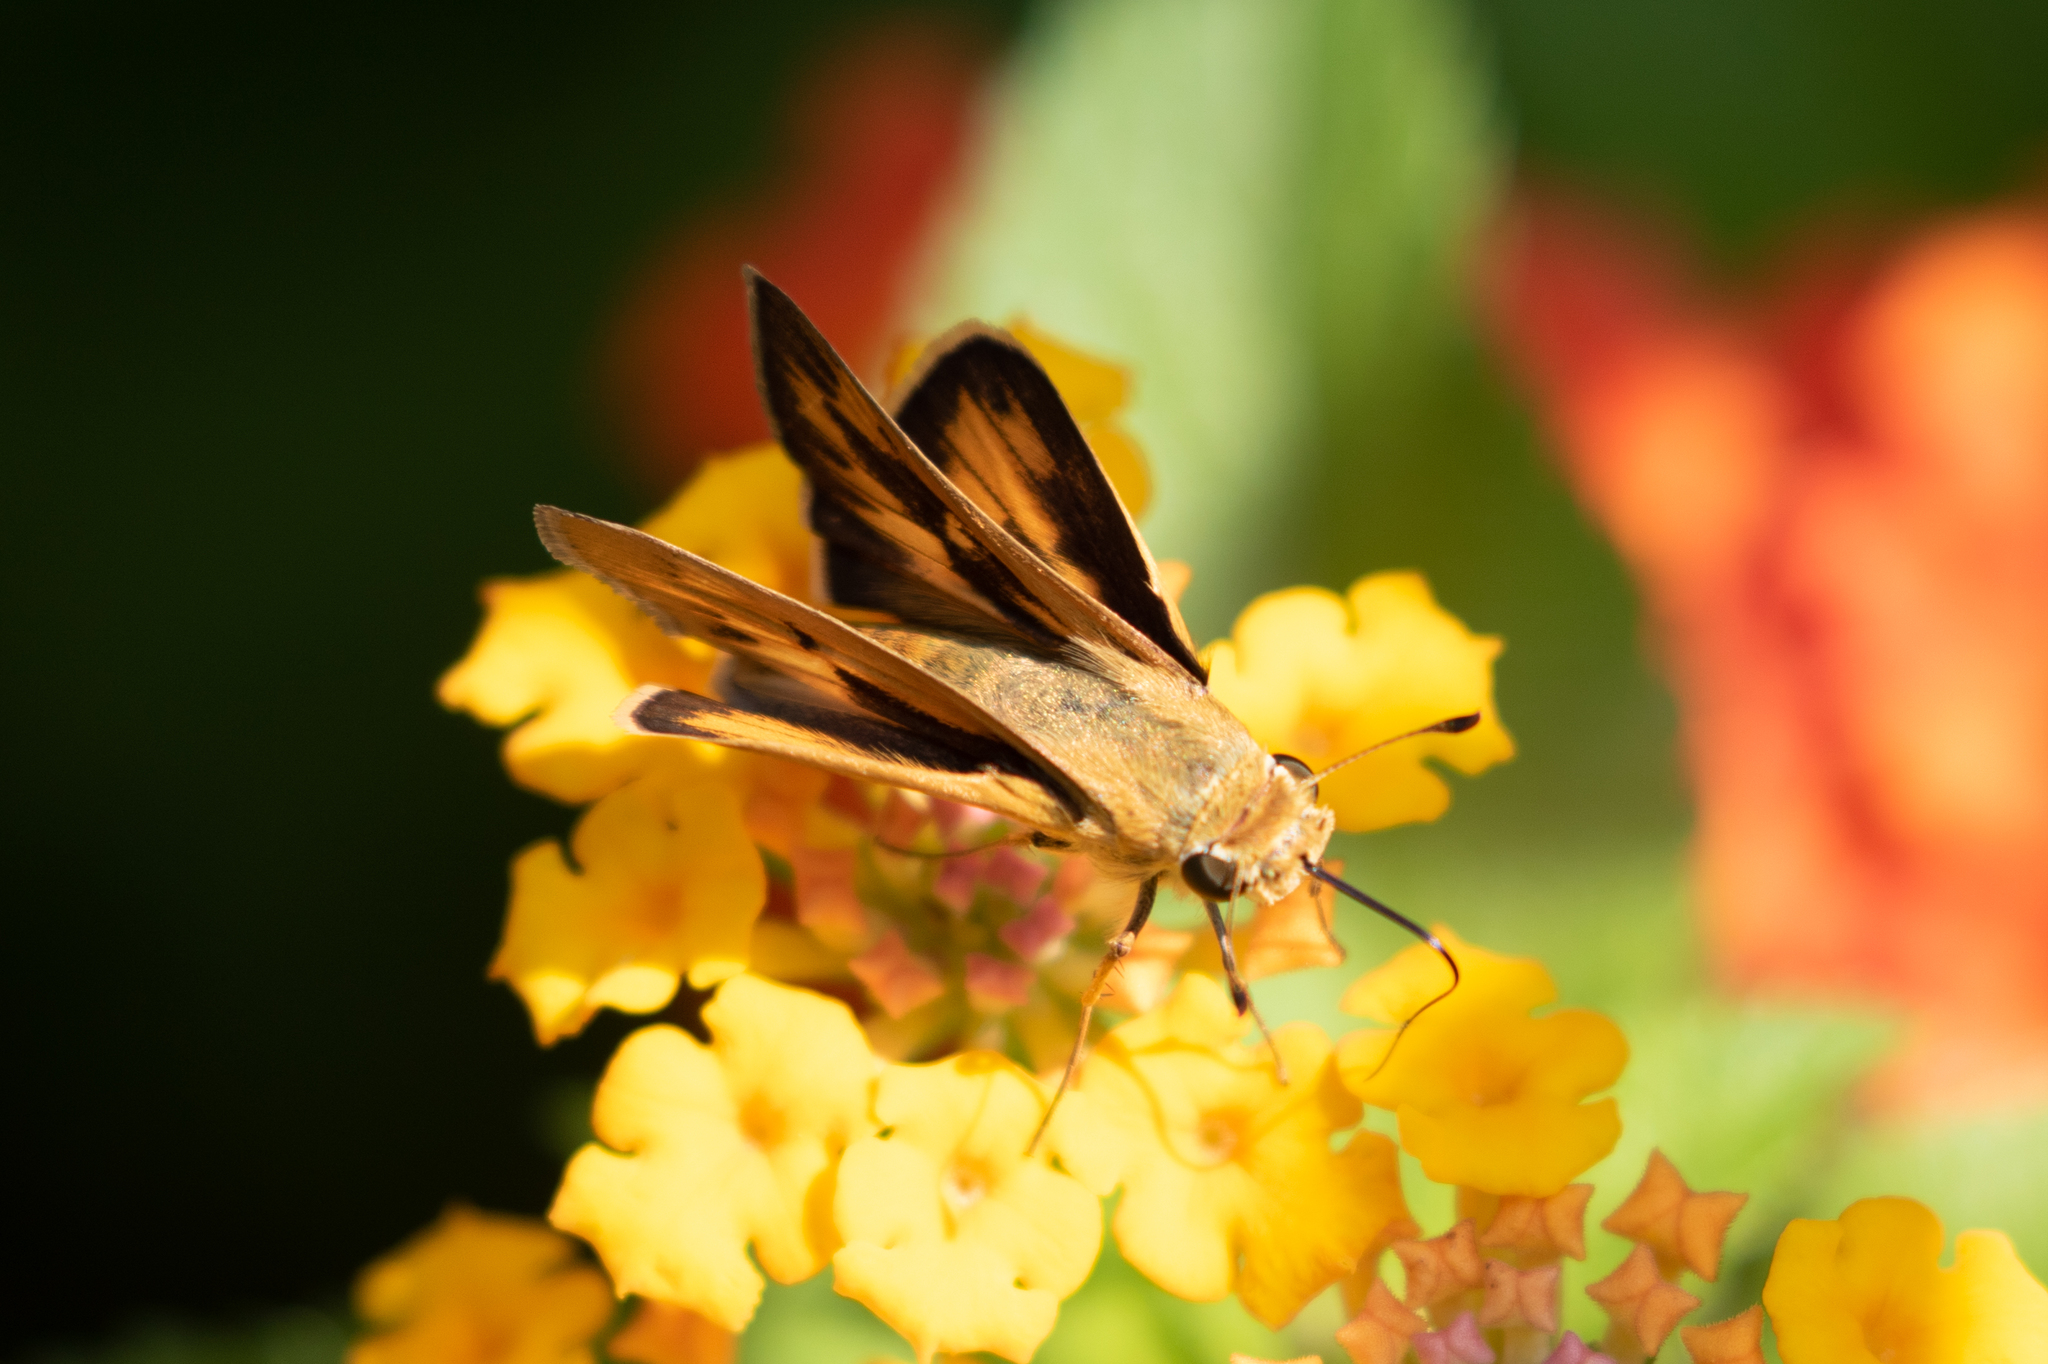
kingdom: Animalia
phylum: Arthropoda
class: Insecta
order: Lepidoptera
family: Hesperiidae
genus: Hylephila
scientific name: Hylephila phyleus
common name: Fiery skipper
